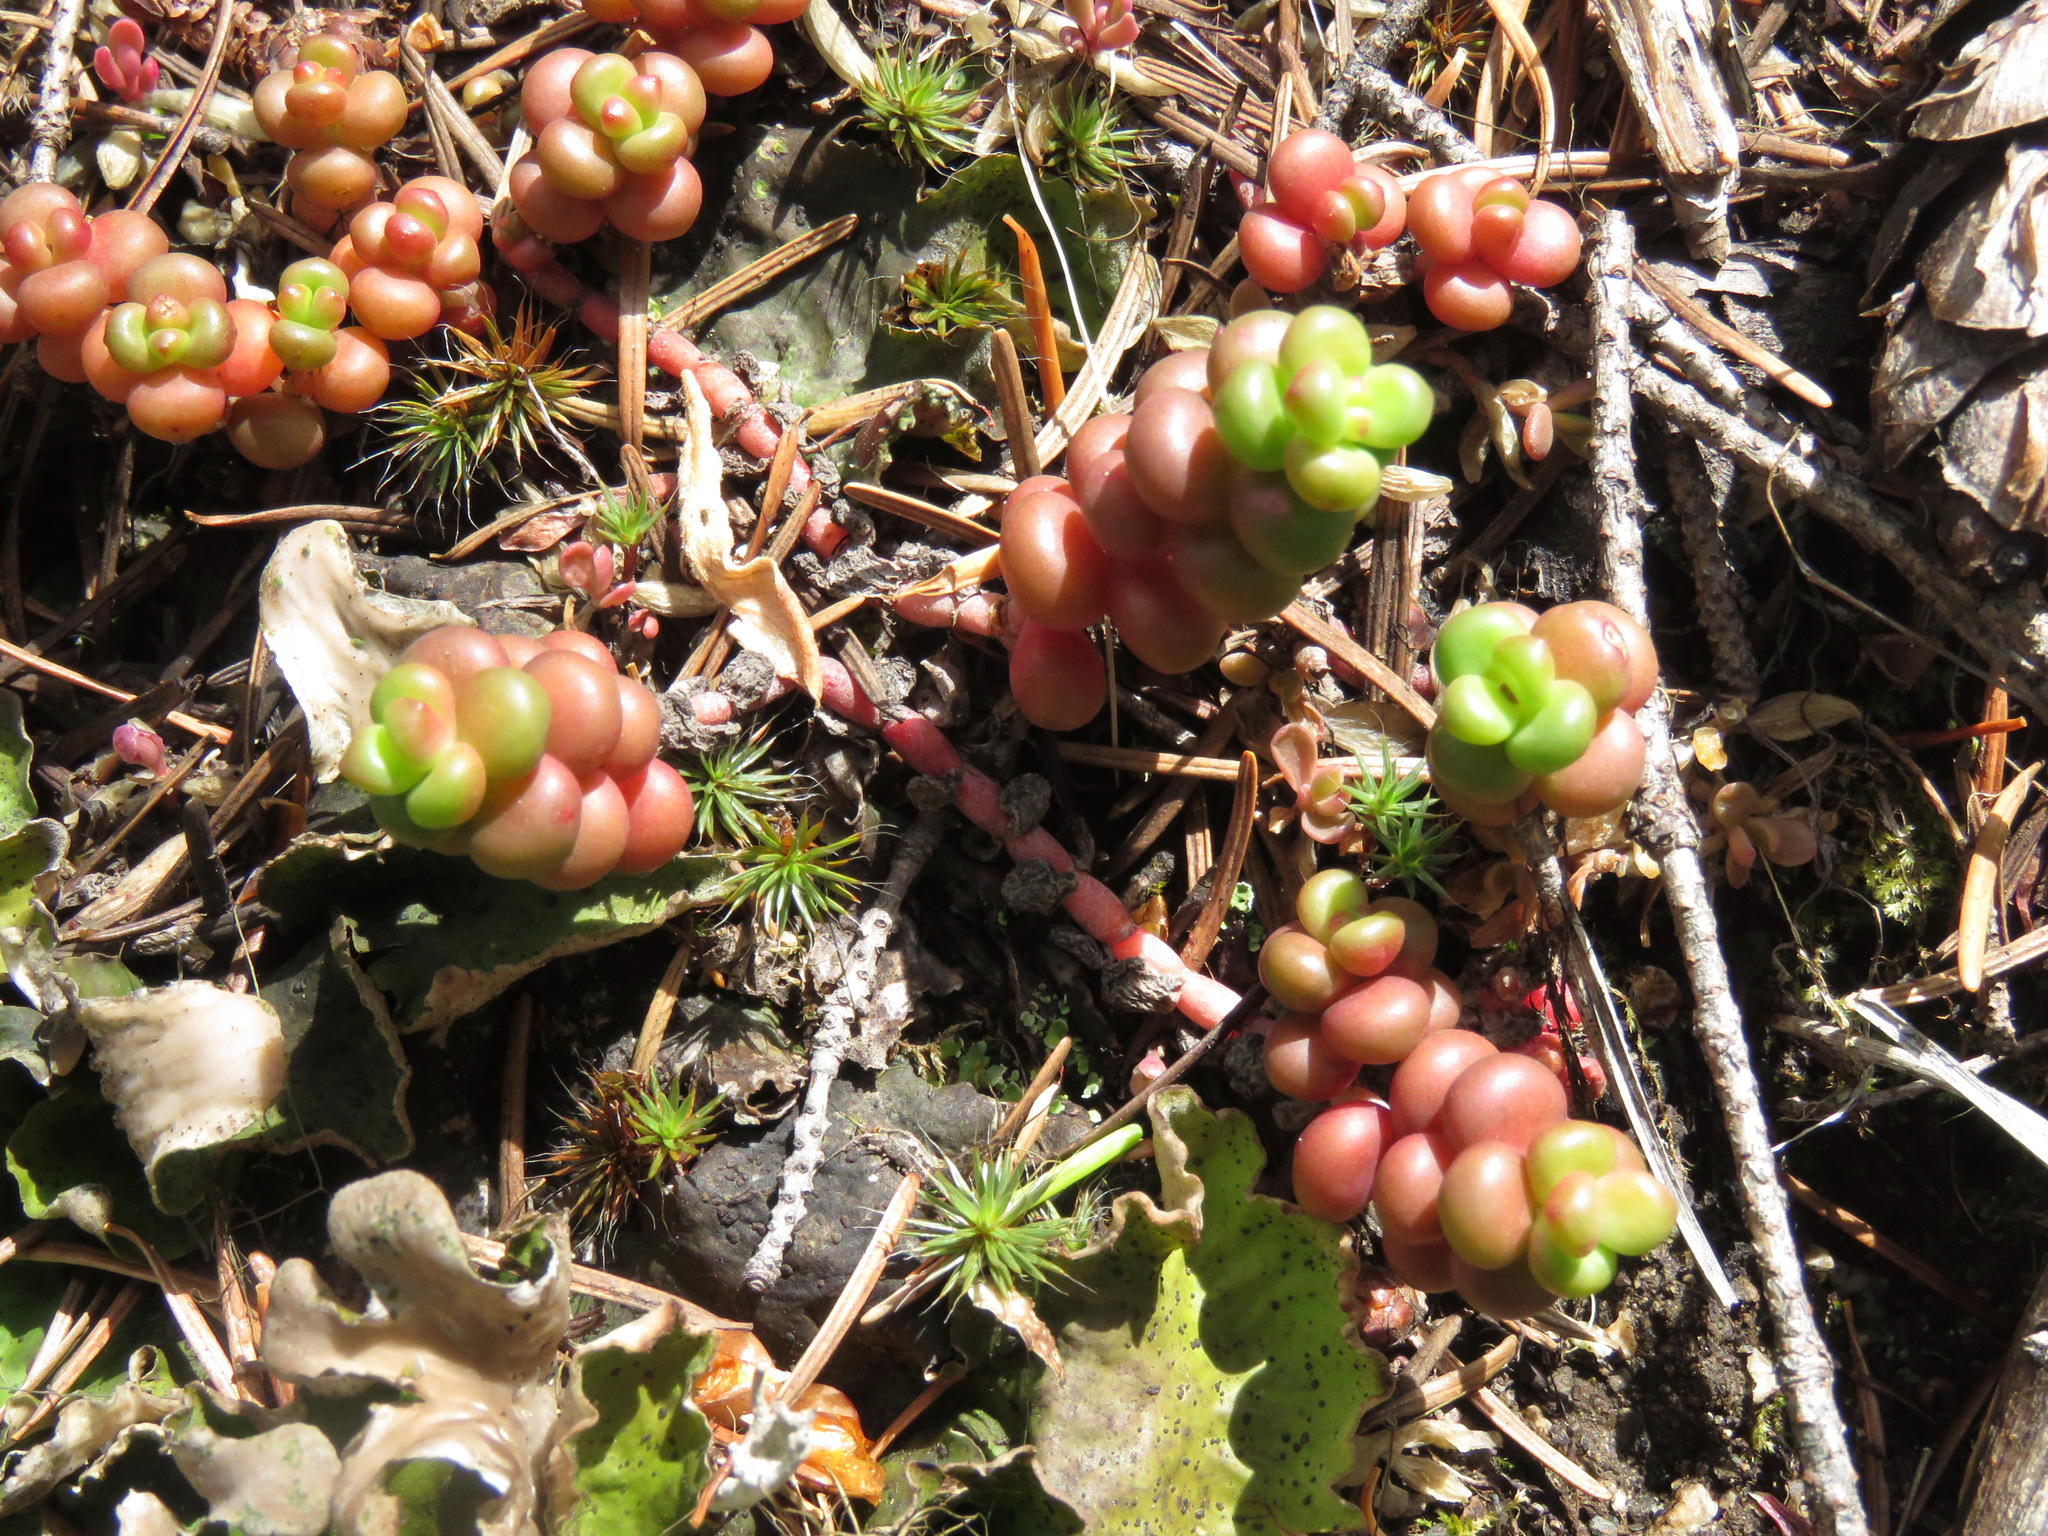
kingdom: Plantae
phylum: Tracheophyta
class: Magnoliopsida
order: Saxifragales
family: Crassulaceae
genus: Sedum
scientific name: Sedum divergens
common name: Cascade stonecrop
